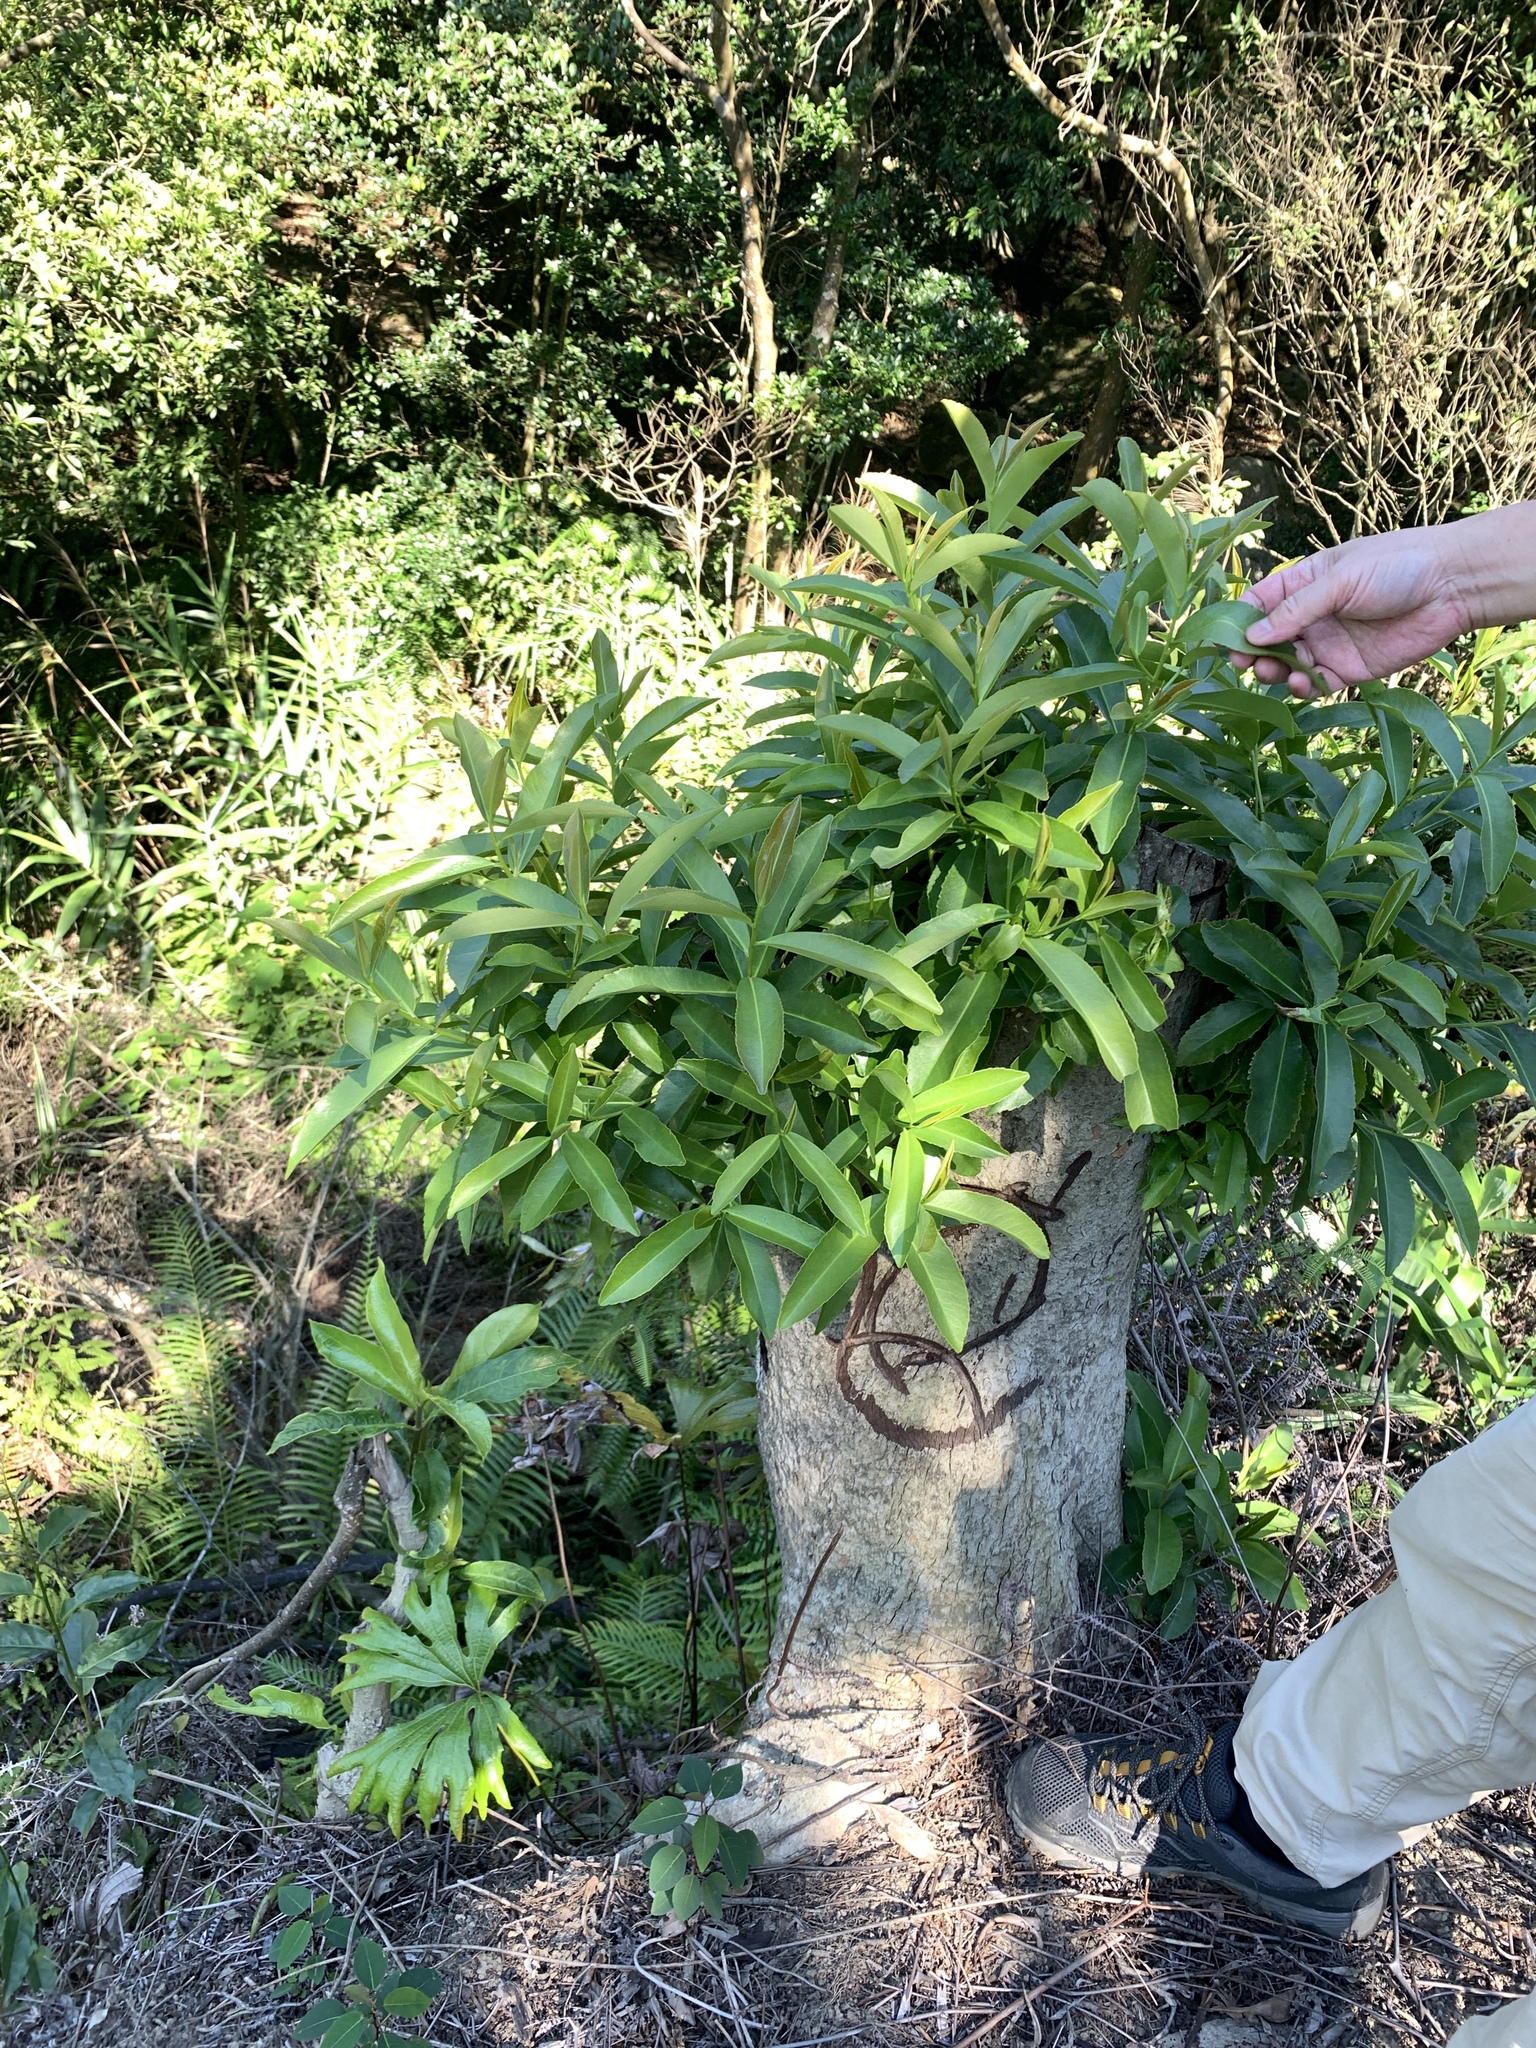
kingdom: Plantae
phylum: Tracheophyta
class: Magnoliopsida
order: Ericales
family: Theaceae
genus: Polyspora
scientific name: Polyspora axillaris
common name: Fried egg tree
